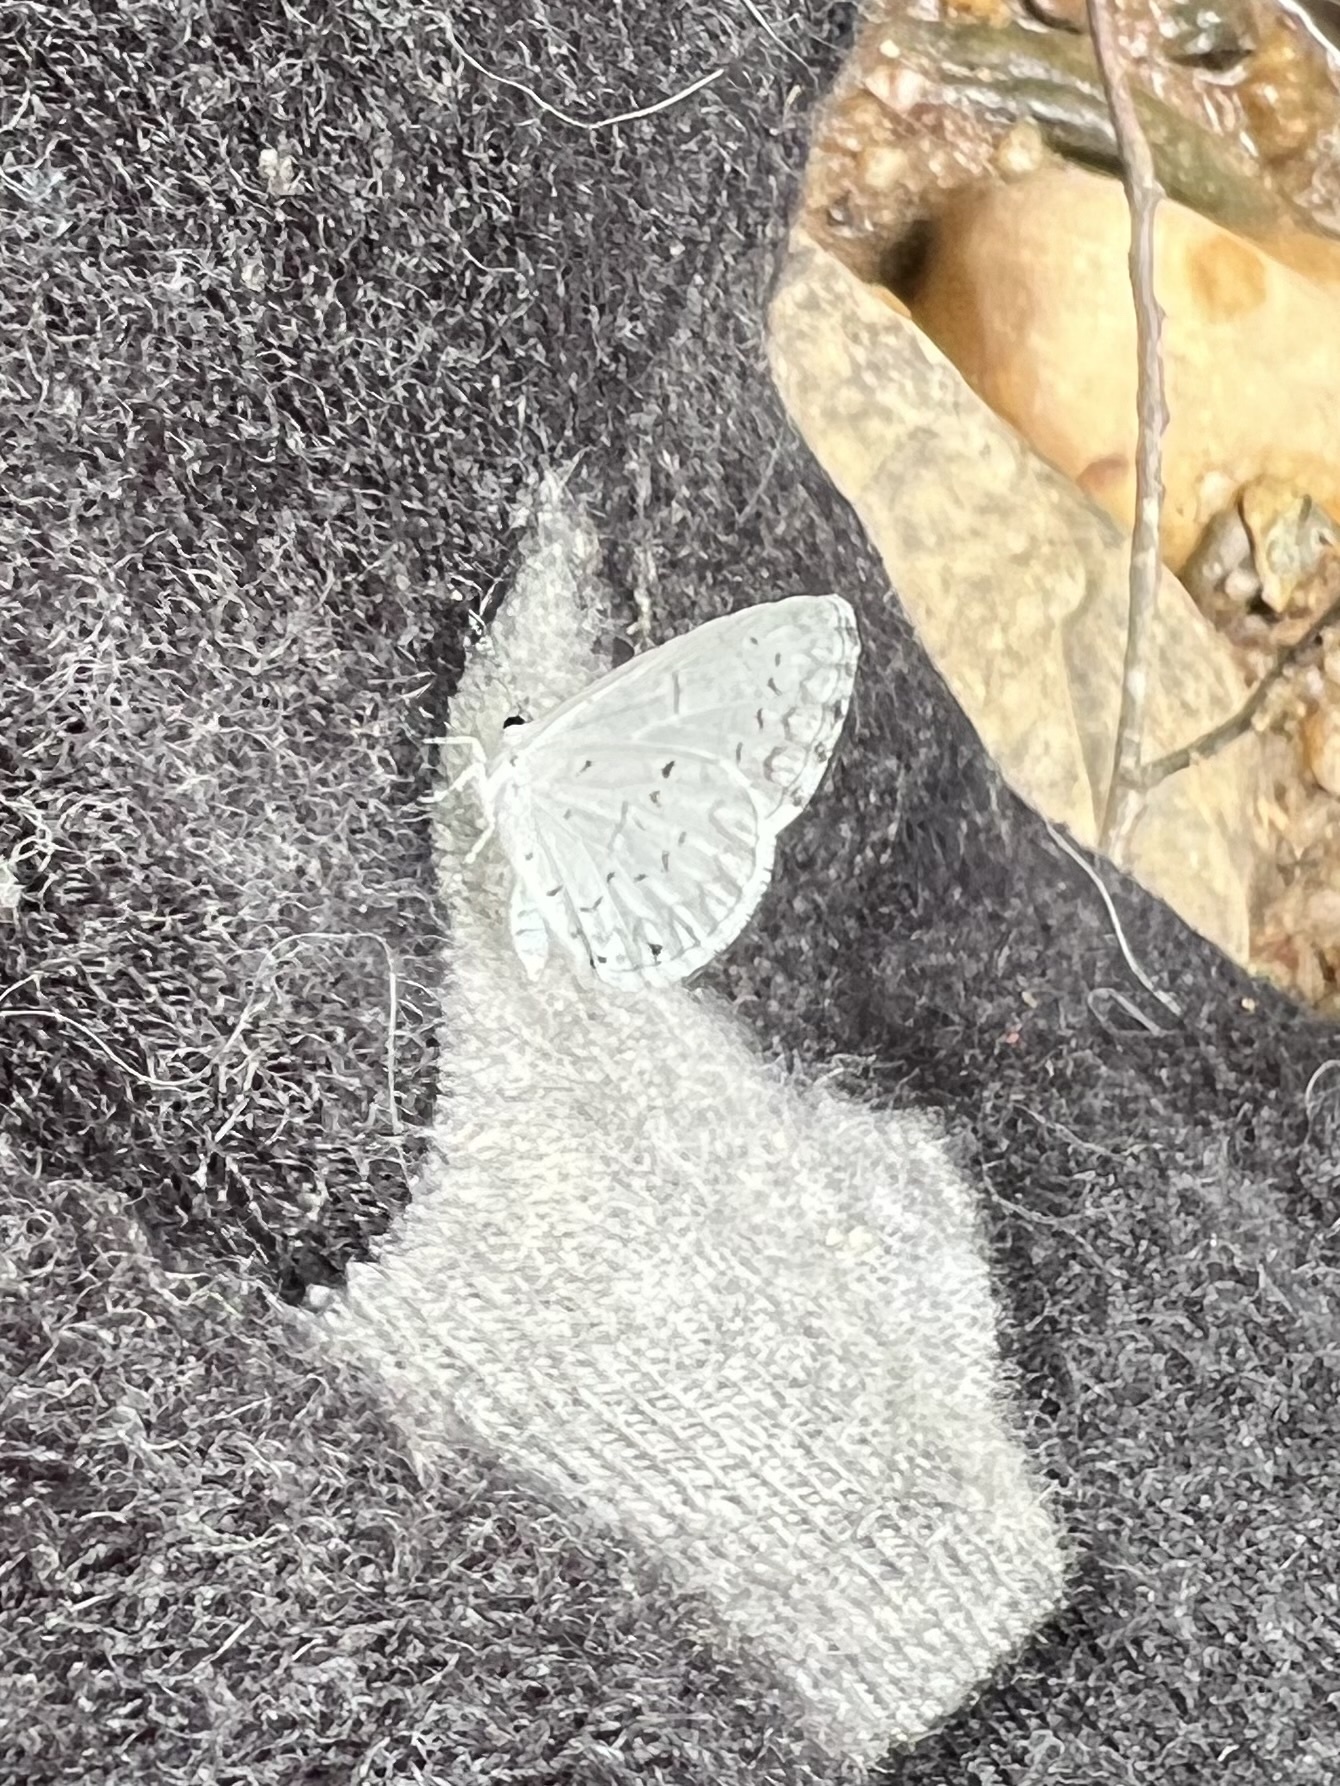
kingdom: Animalia
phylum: Arthropoda
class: Insecta
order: Lepidoptera
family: Lycaenidae
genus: Cyaniris
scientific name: Cyaniris neglecta
